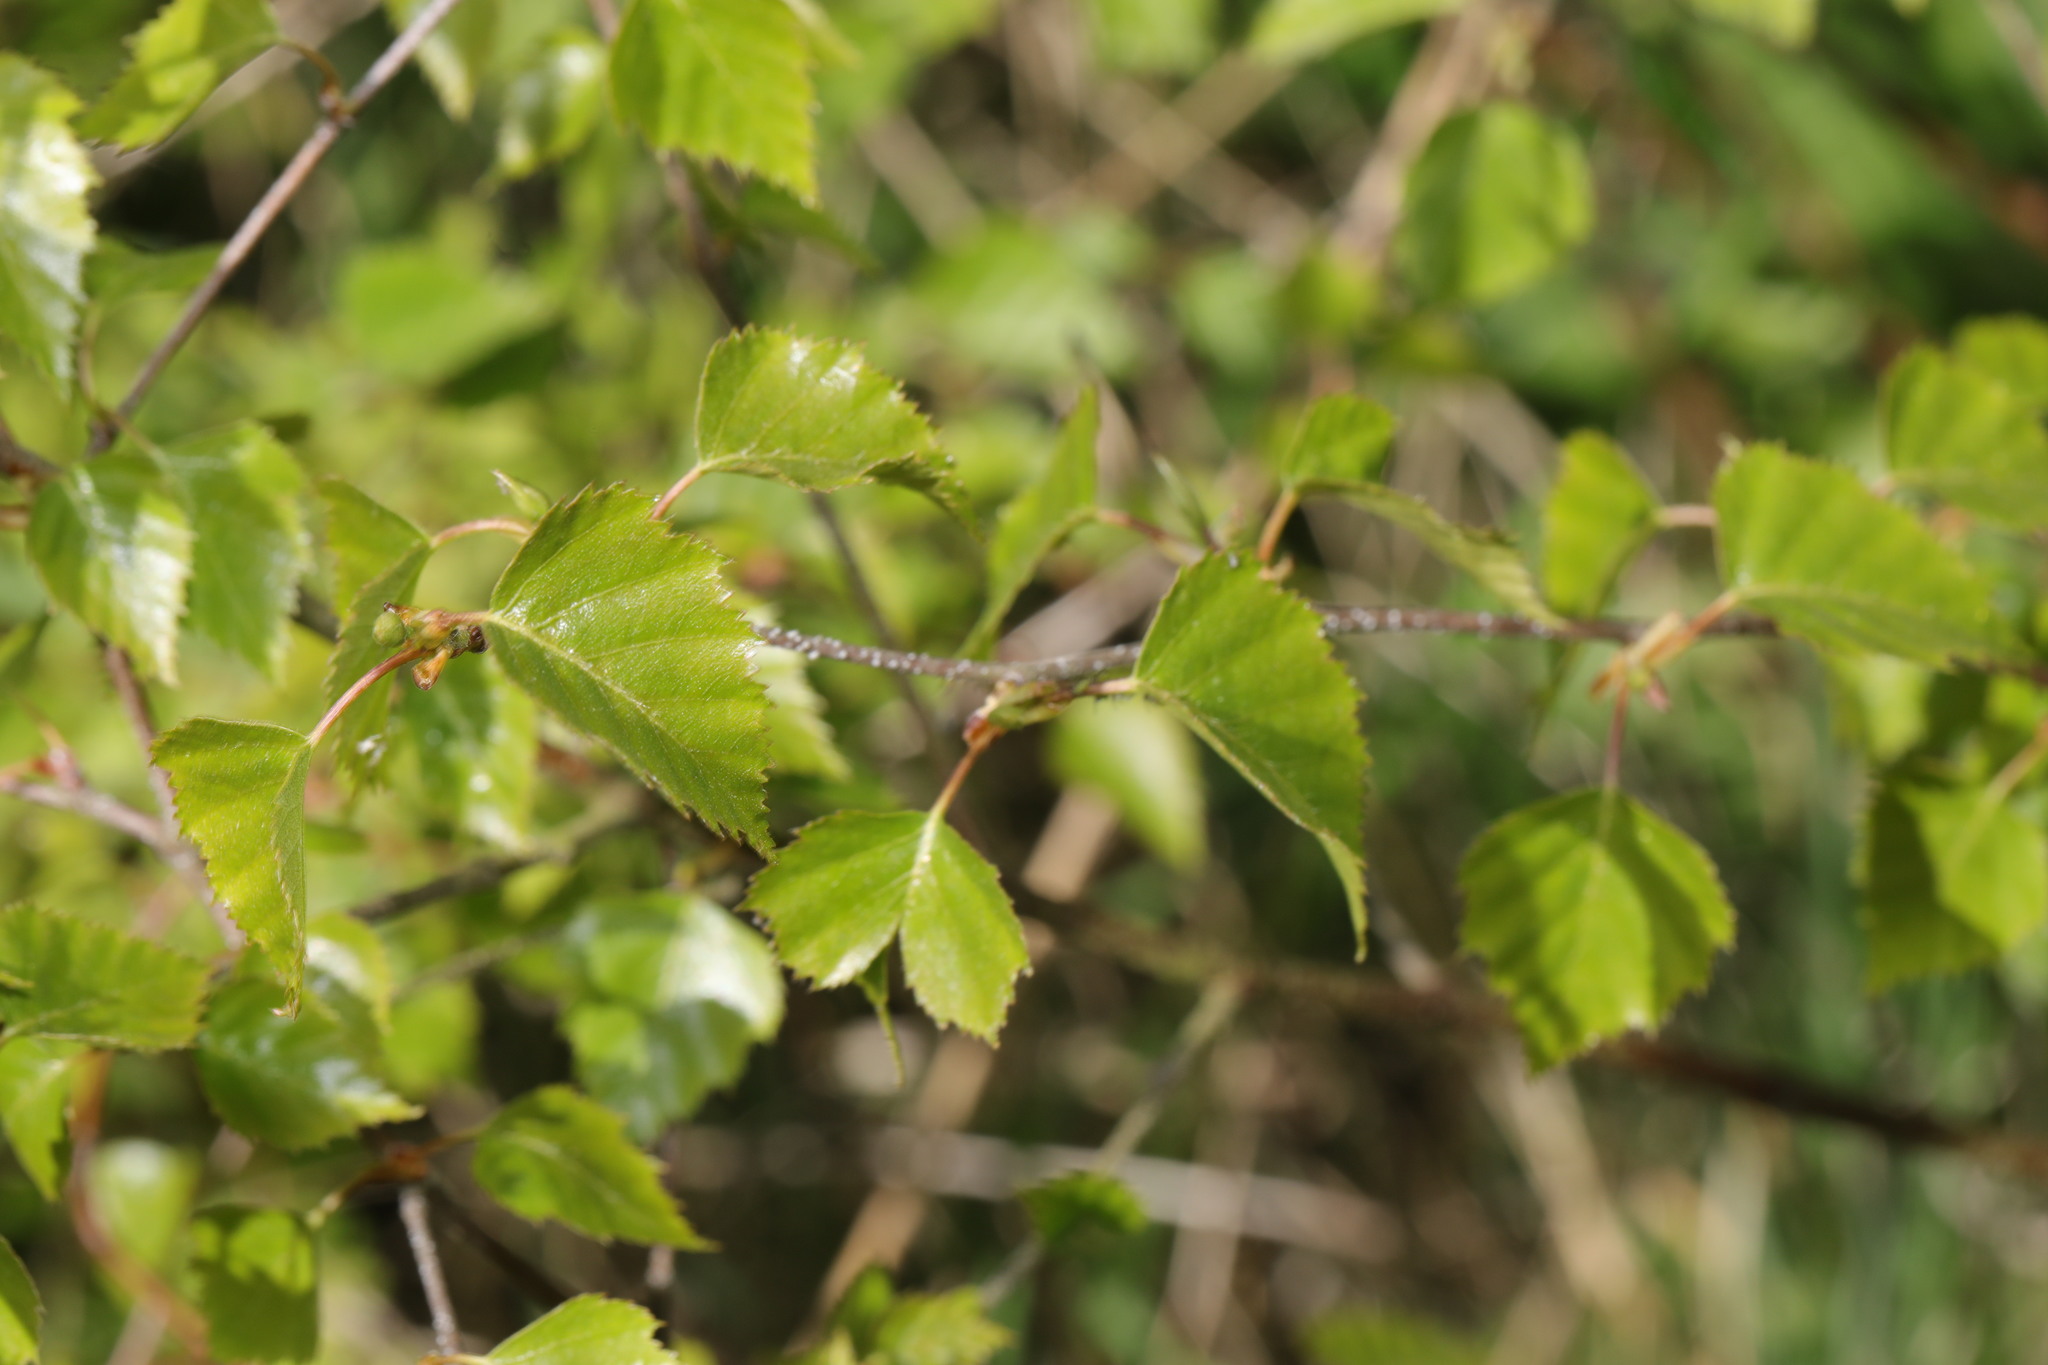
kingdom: Plantae
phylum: Tracheophyta
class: Magnoliopsida
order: Fagales
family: Betulaceae
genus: Betula
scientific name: Betula pendula
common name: Silver birch
